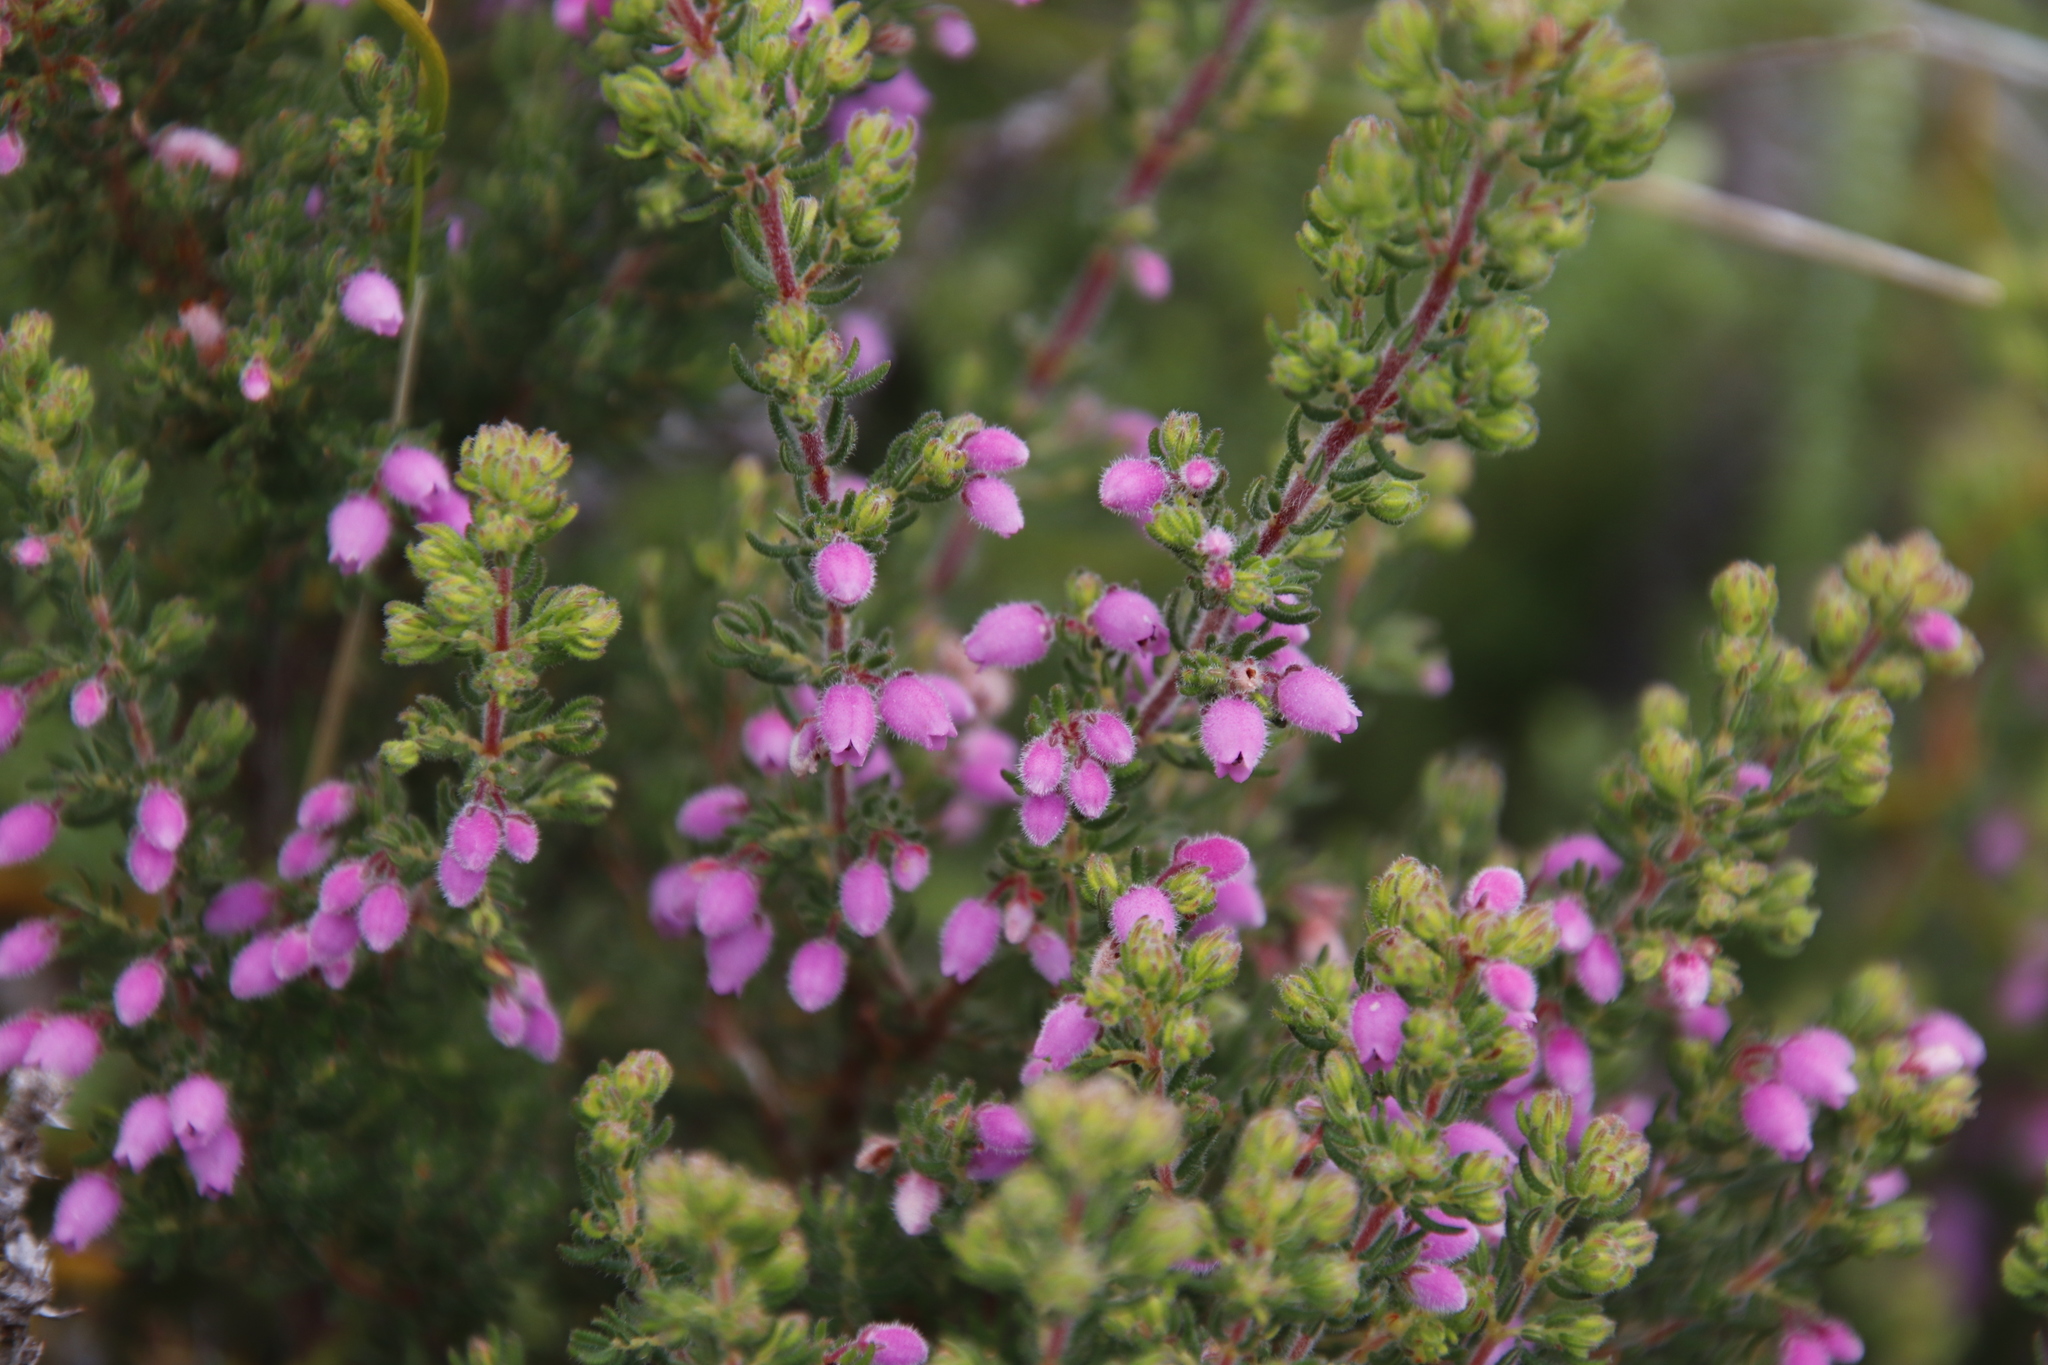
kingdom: Plantae
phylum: Tracheophyta
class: Magnoliopsida
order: Ericales
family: Ericaceae
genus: Erica
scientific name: Erica hirtiflora
